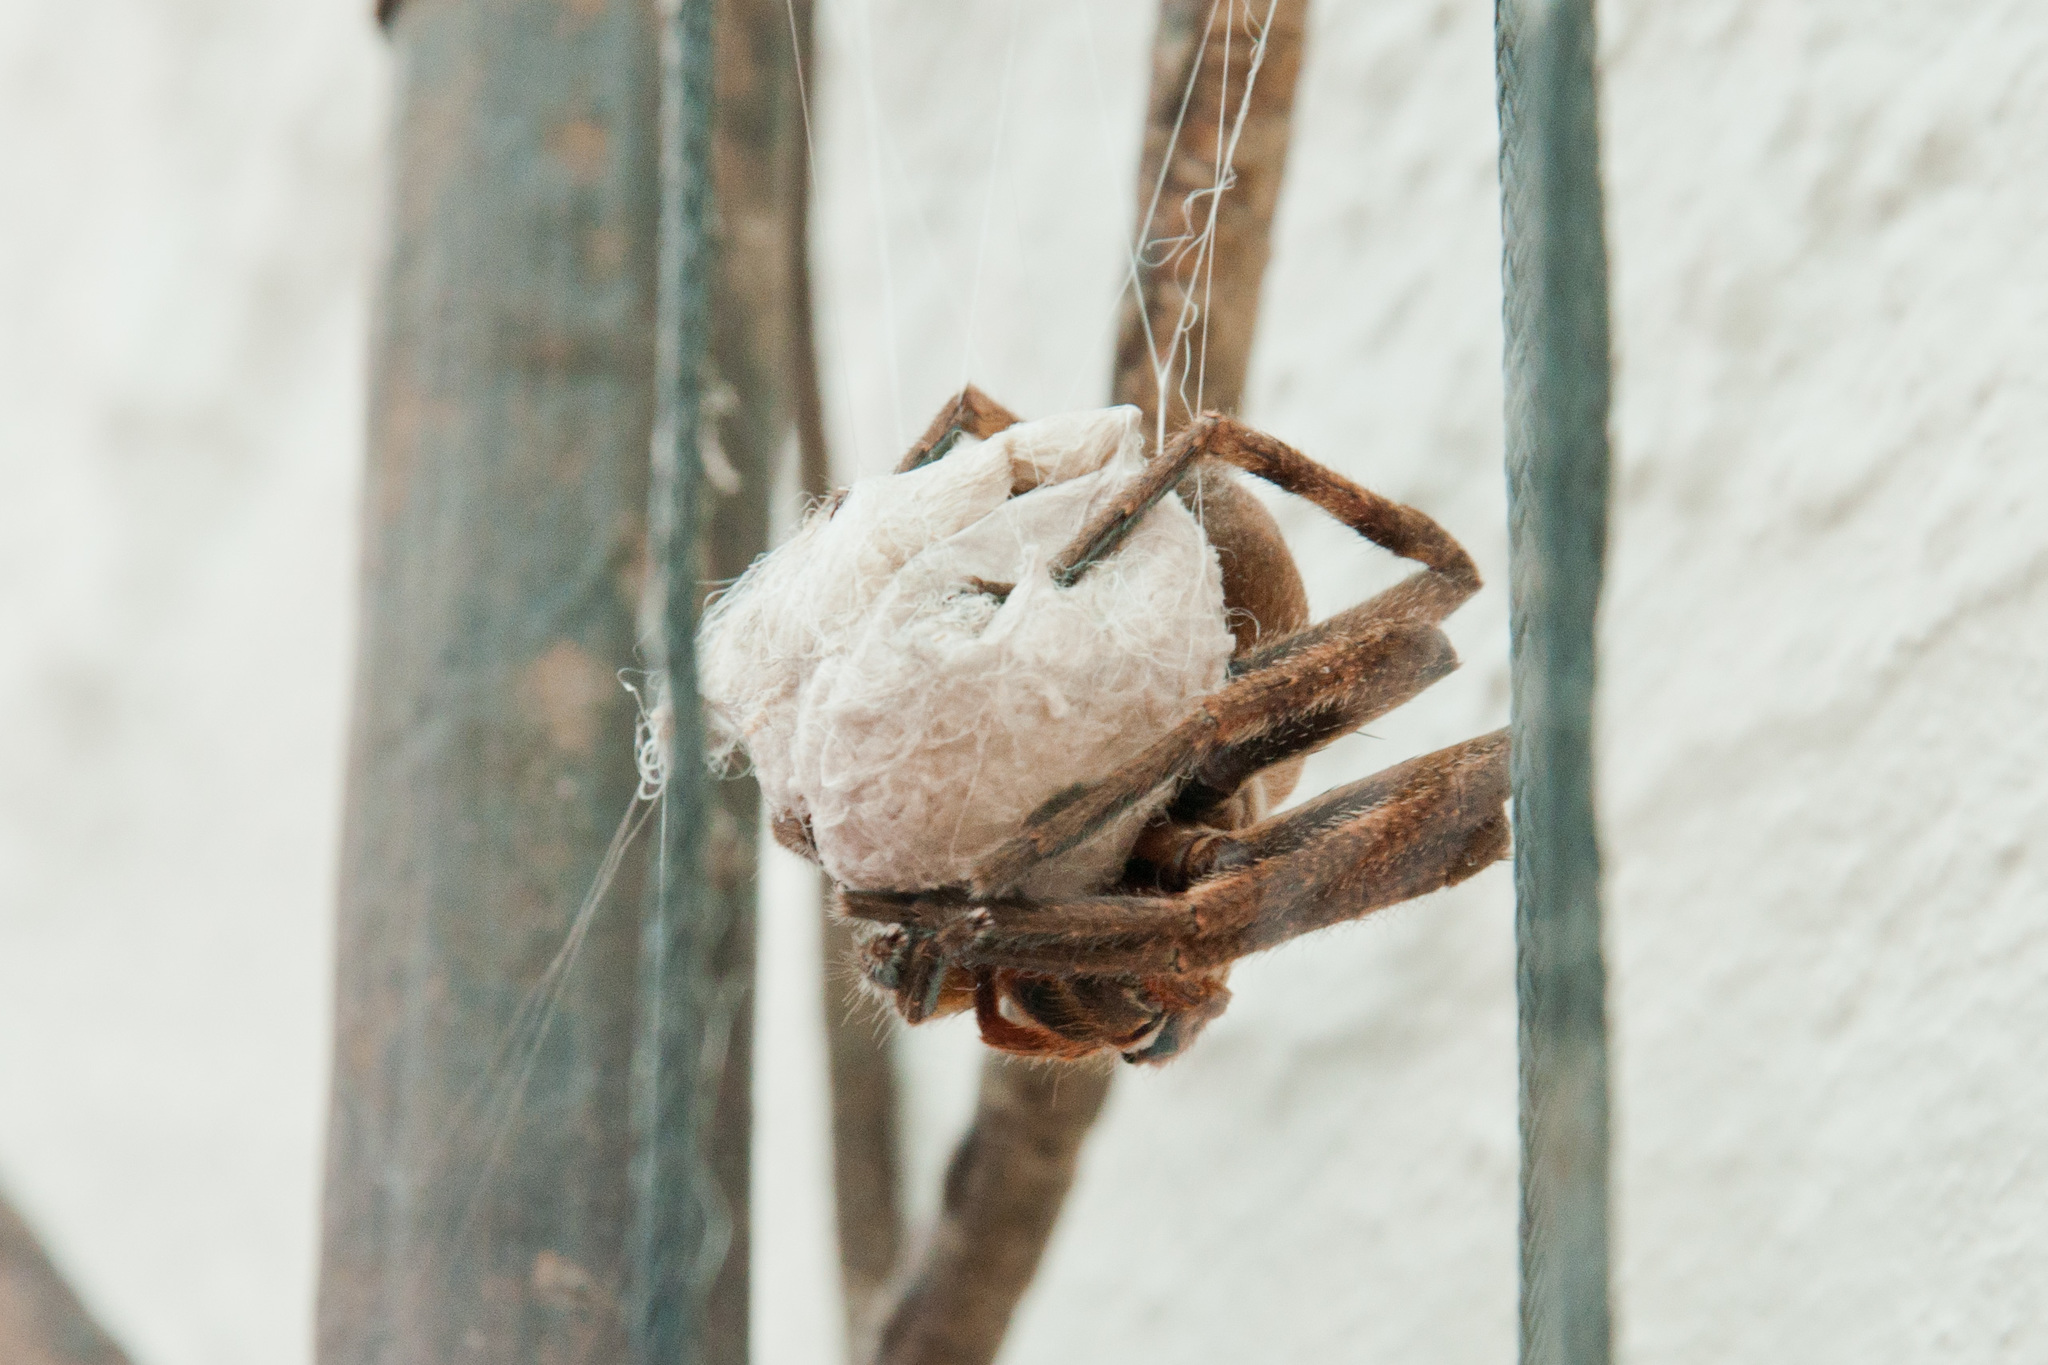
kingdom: Animalia
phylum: Arthropoda
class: Arachnida
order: Araneae
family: Sparassidae
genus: Palystes
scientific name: Palystes superciliosus
